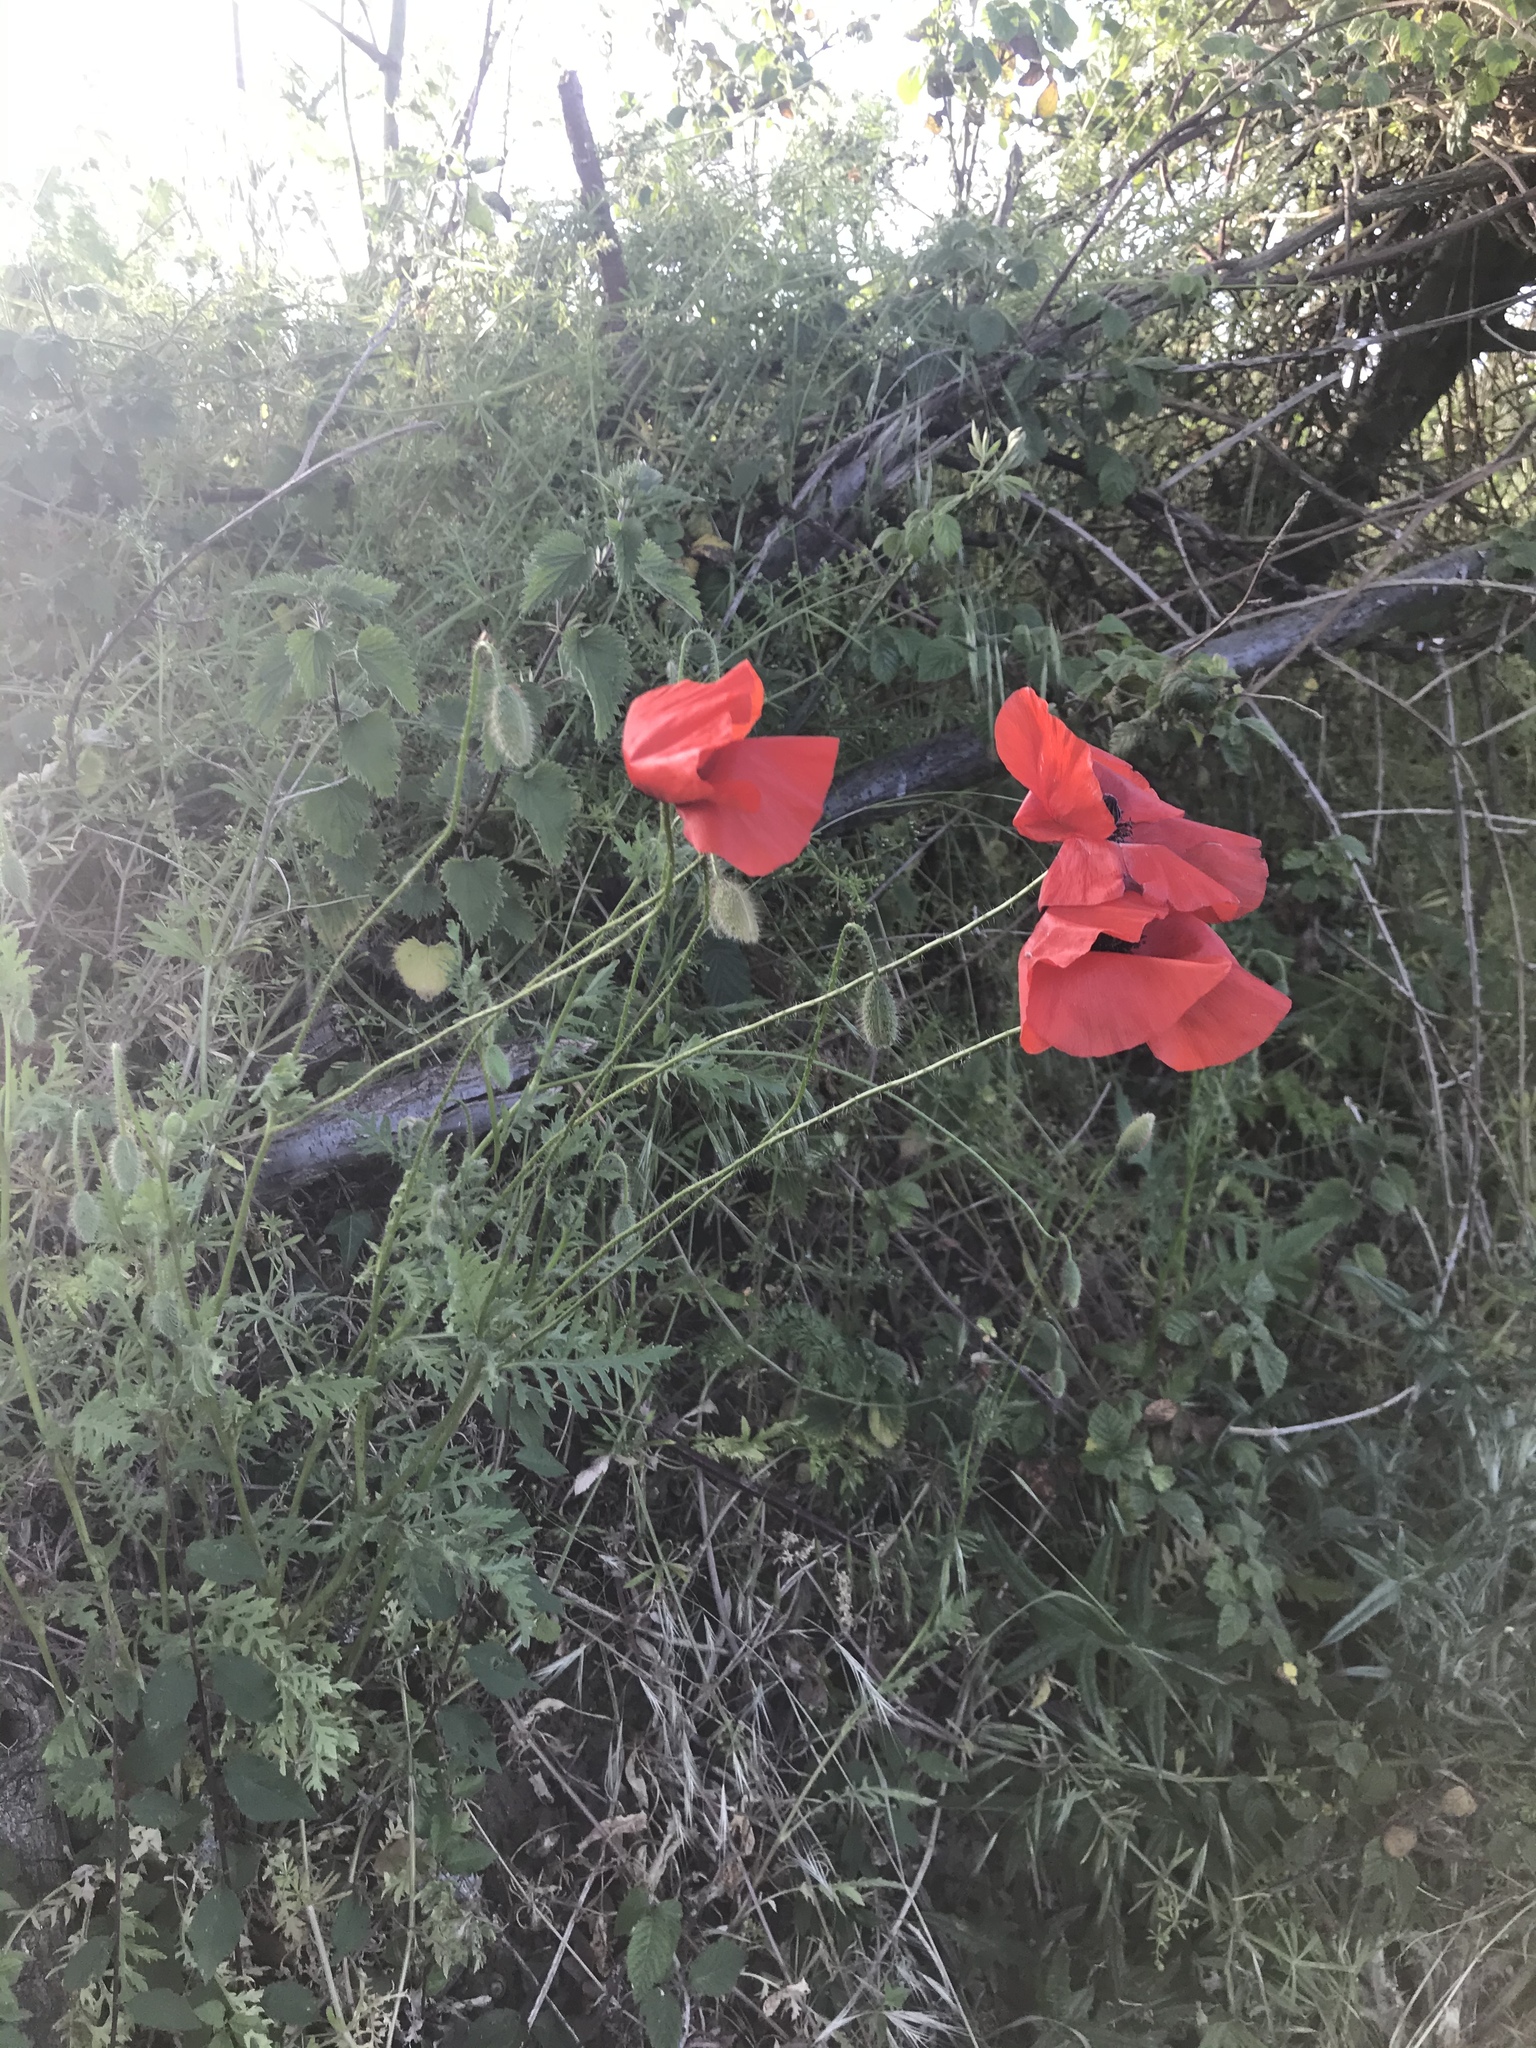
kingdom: Plantae
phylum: Tracheophyta
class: Magnoliopsida
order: Ranunculales
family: Papaveraceae
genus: Papaver
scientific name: Papaver rhoeas
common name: Corn poppy
